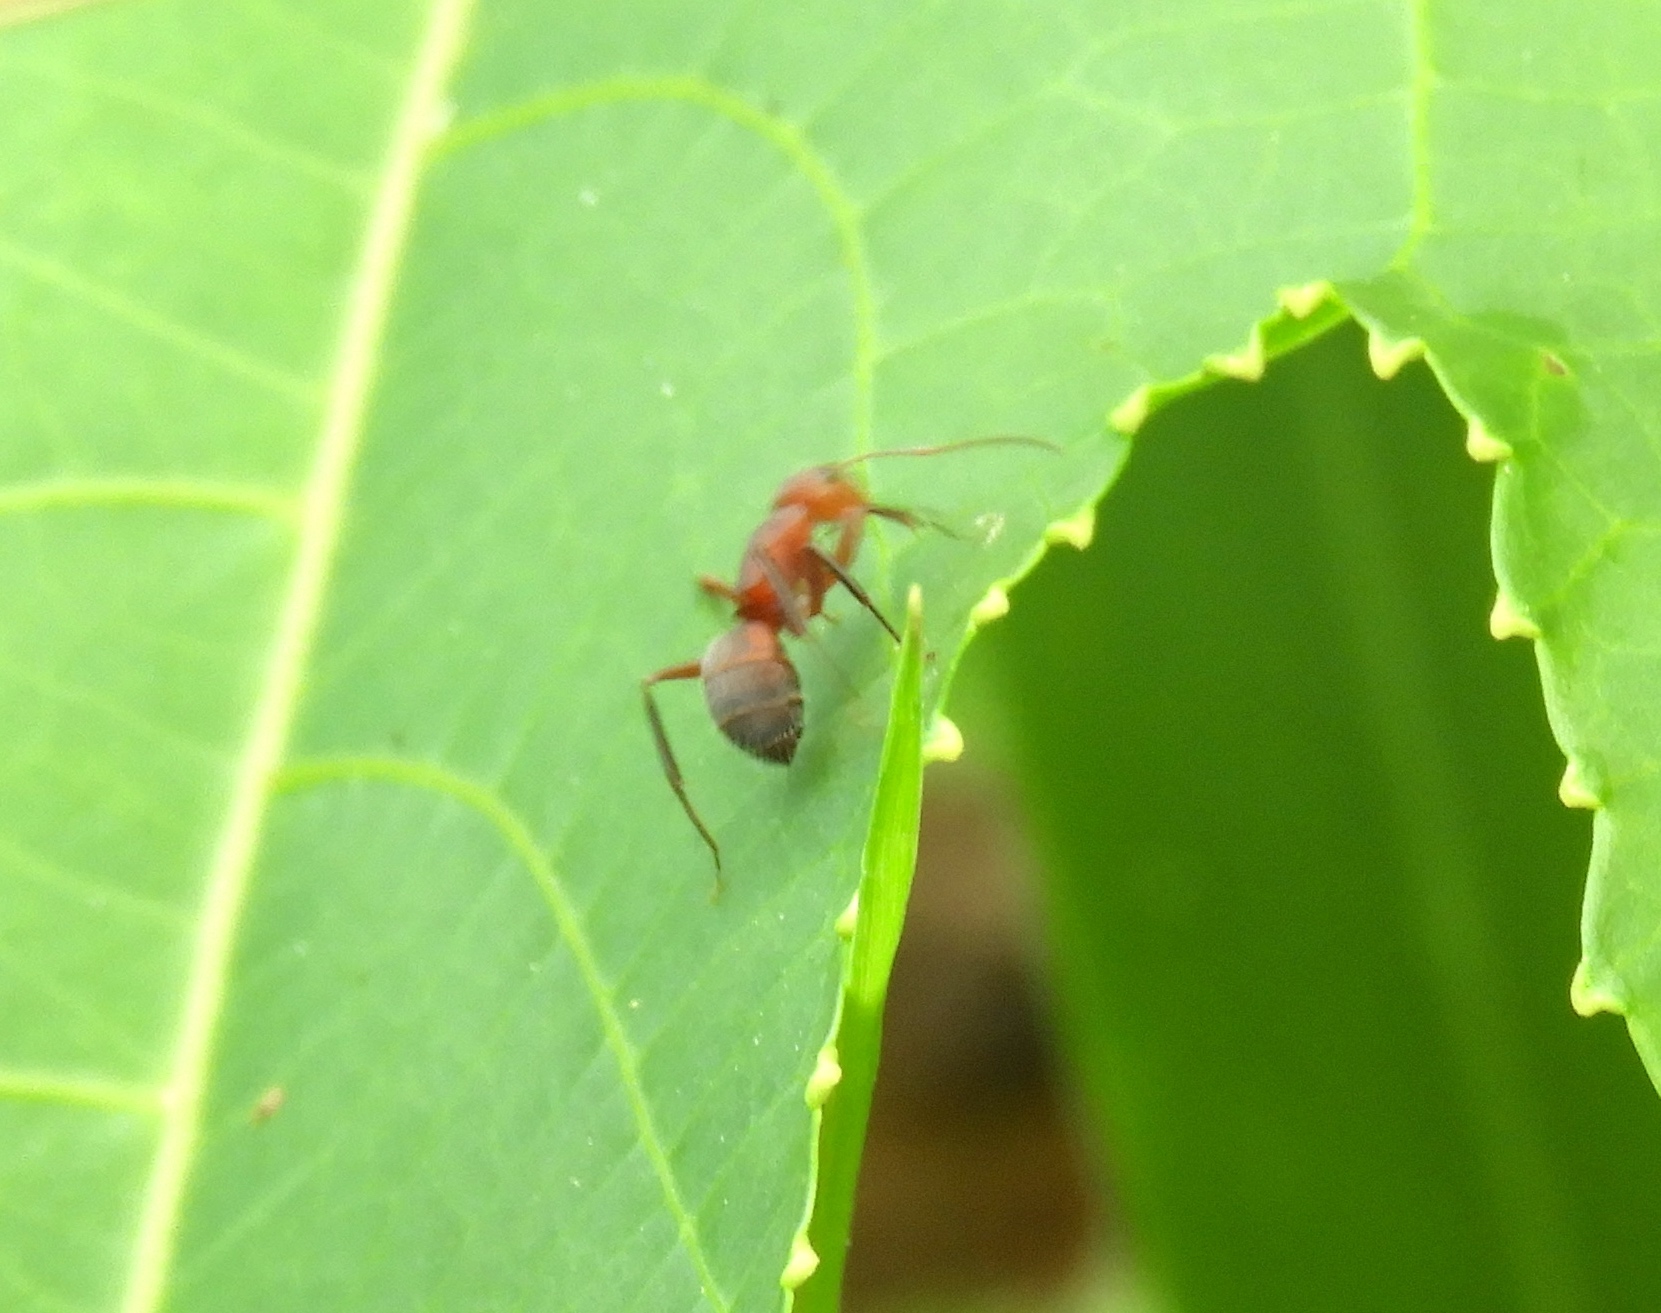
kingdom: Animalia
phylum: Arthropoda
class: Insecta
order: Hymenoptera
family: Formicidae
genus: Camponotus
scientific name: Camponotus rectangularis
